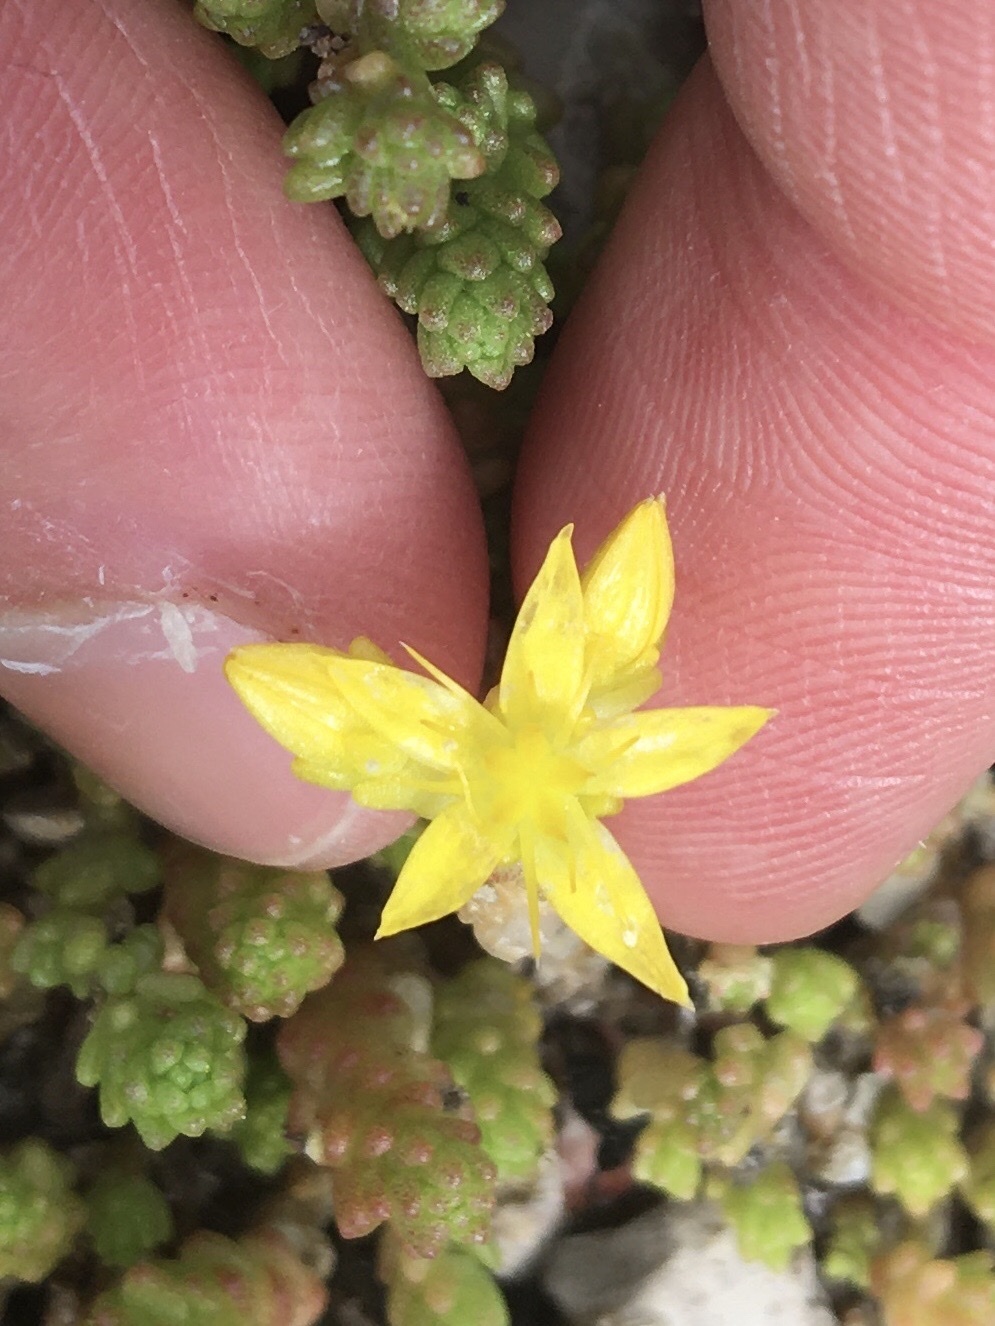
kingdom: Plantae
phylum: Tracheophyta
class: Magnoliopsida
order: Saxifragales
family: Crassulaceae
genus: Sedum
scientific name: Sedum acre
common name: Biting stonecrop
